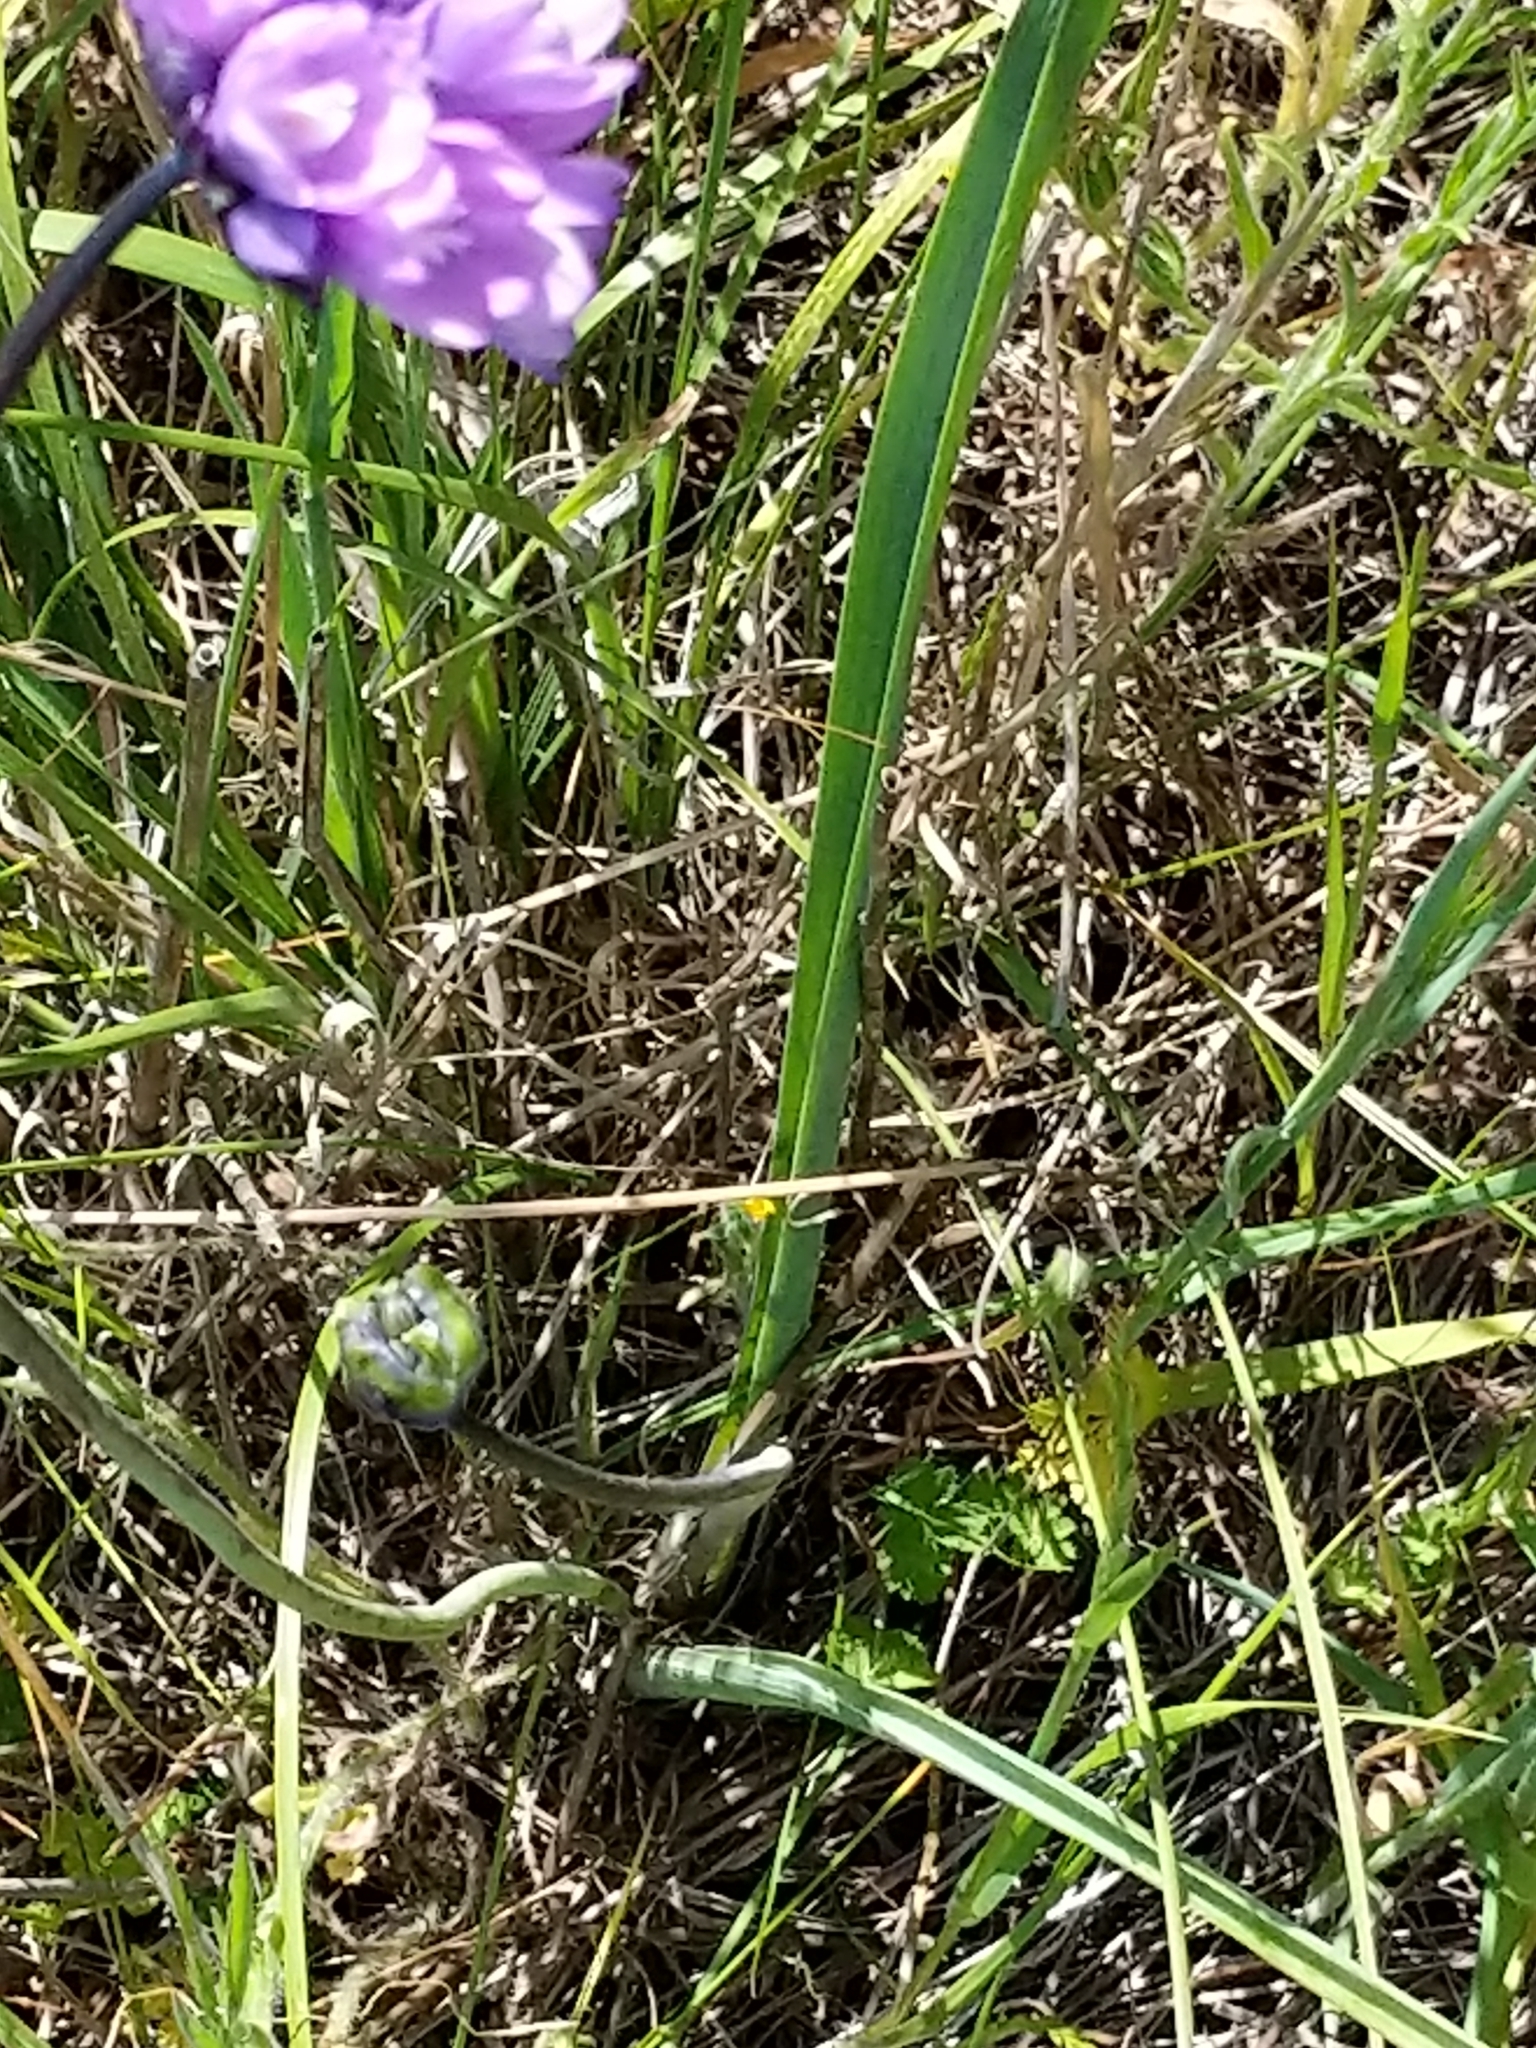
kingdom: Plantae
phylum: Tracheophyta
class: Liliopsida
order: Asparagales
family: Asparagaceae
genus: Dipterostemon
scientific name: Dipterostemon capitatus
